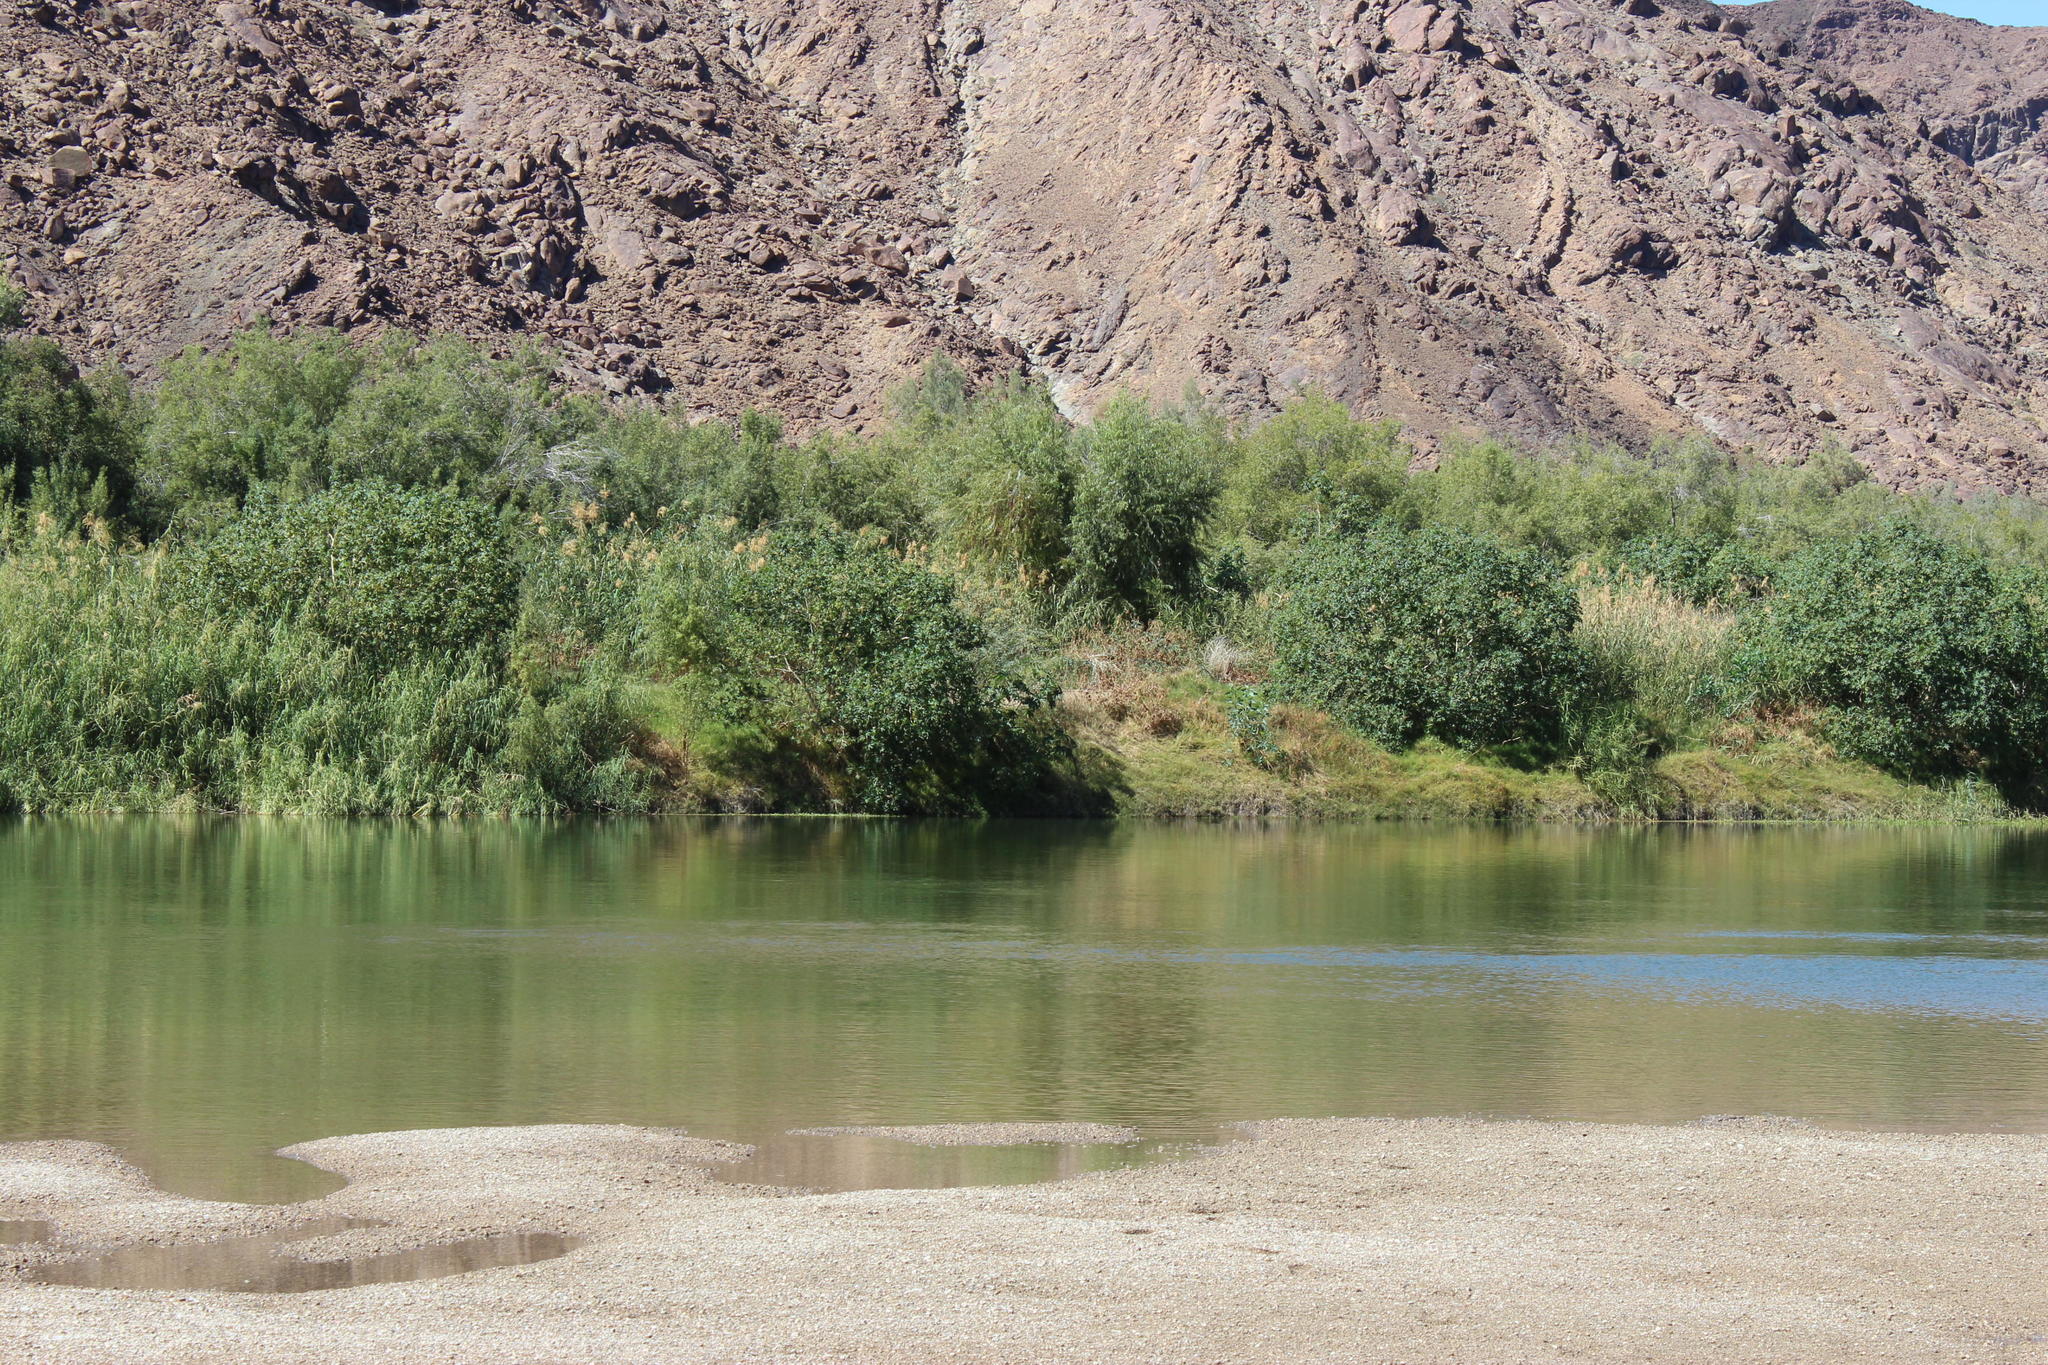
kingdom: Plantae
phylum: Tracheophyta
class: Magnoliopsida
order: Malpighiales
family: Euphorbiaceae
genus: Ricinus
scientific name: Ricinus communis
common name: Castor-oil-plant
